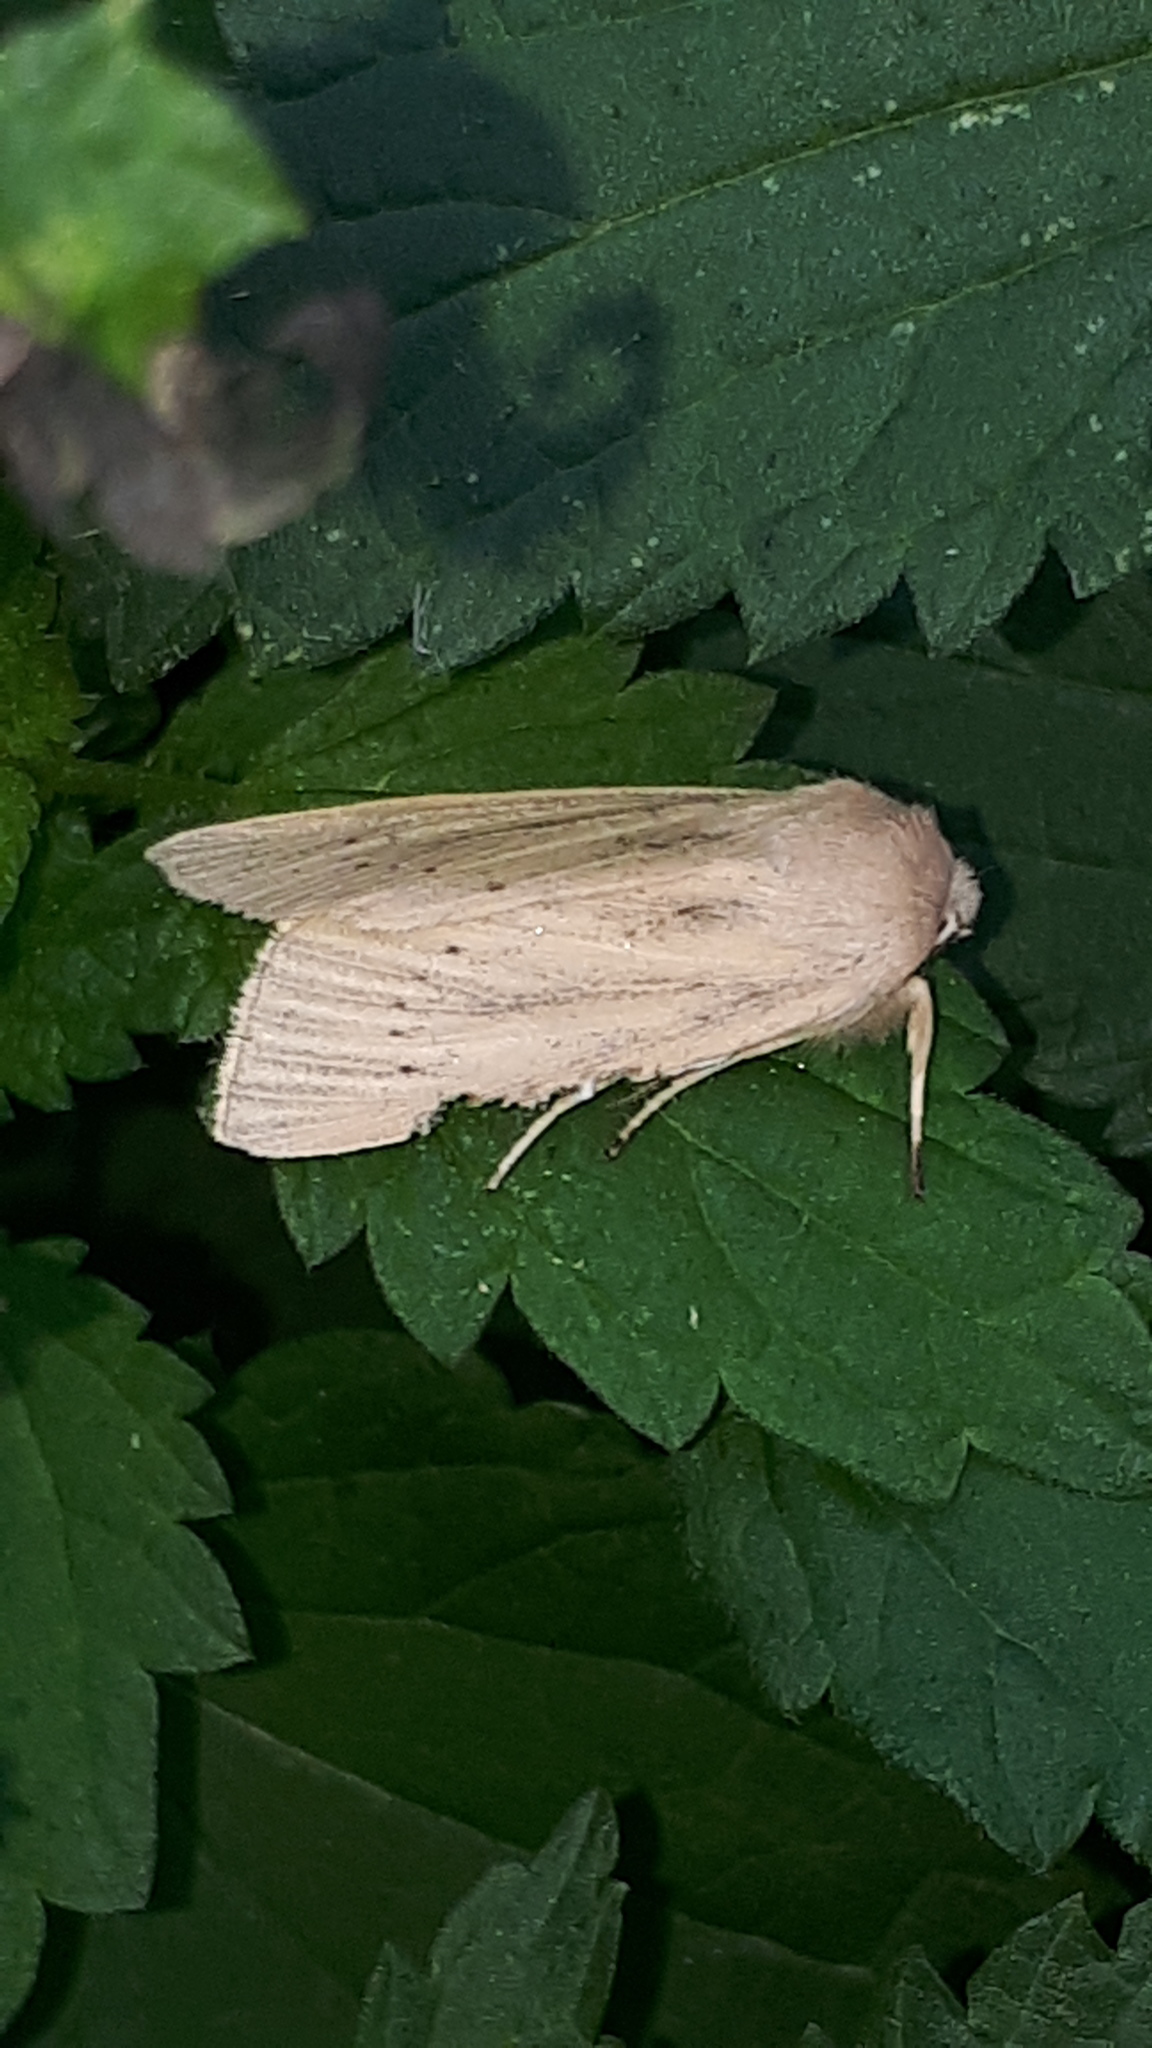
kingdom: Animalia
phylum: Arthropoda
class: Insecta
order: Lepidoptera
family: Noctuidae
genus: Rhizedra
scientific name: Rhizedra lutosa
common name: Large wainscot
